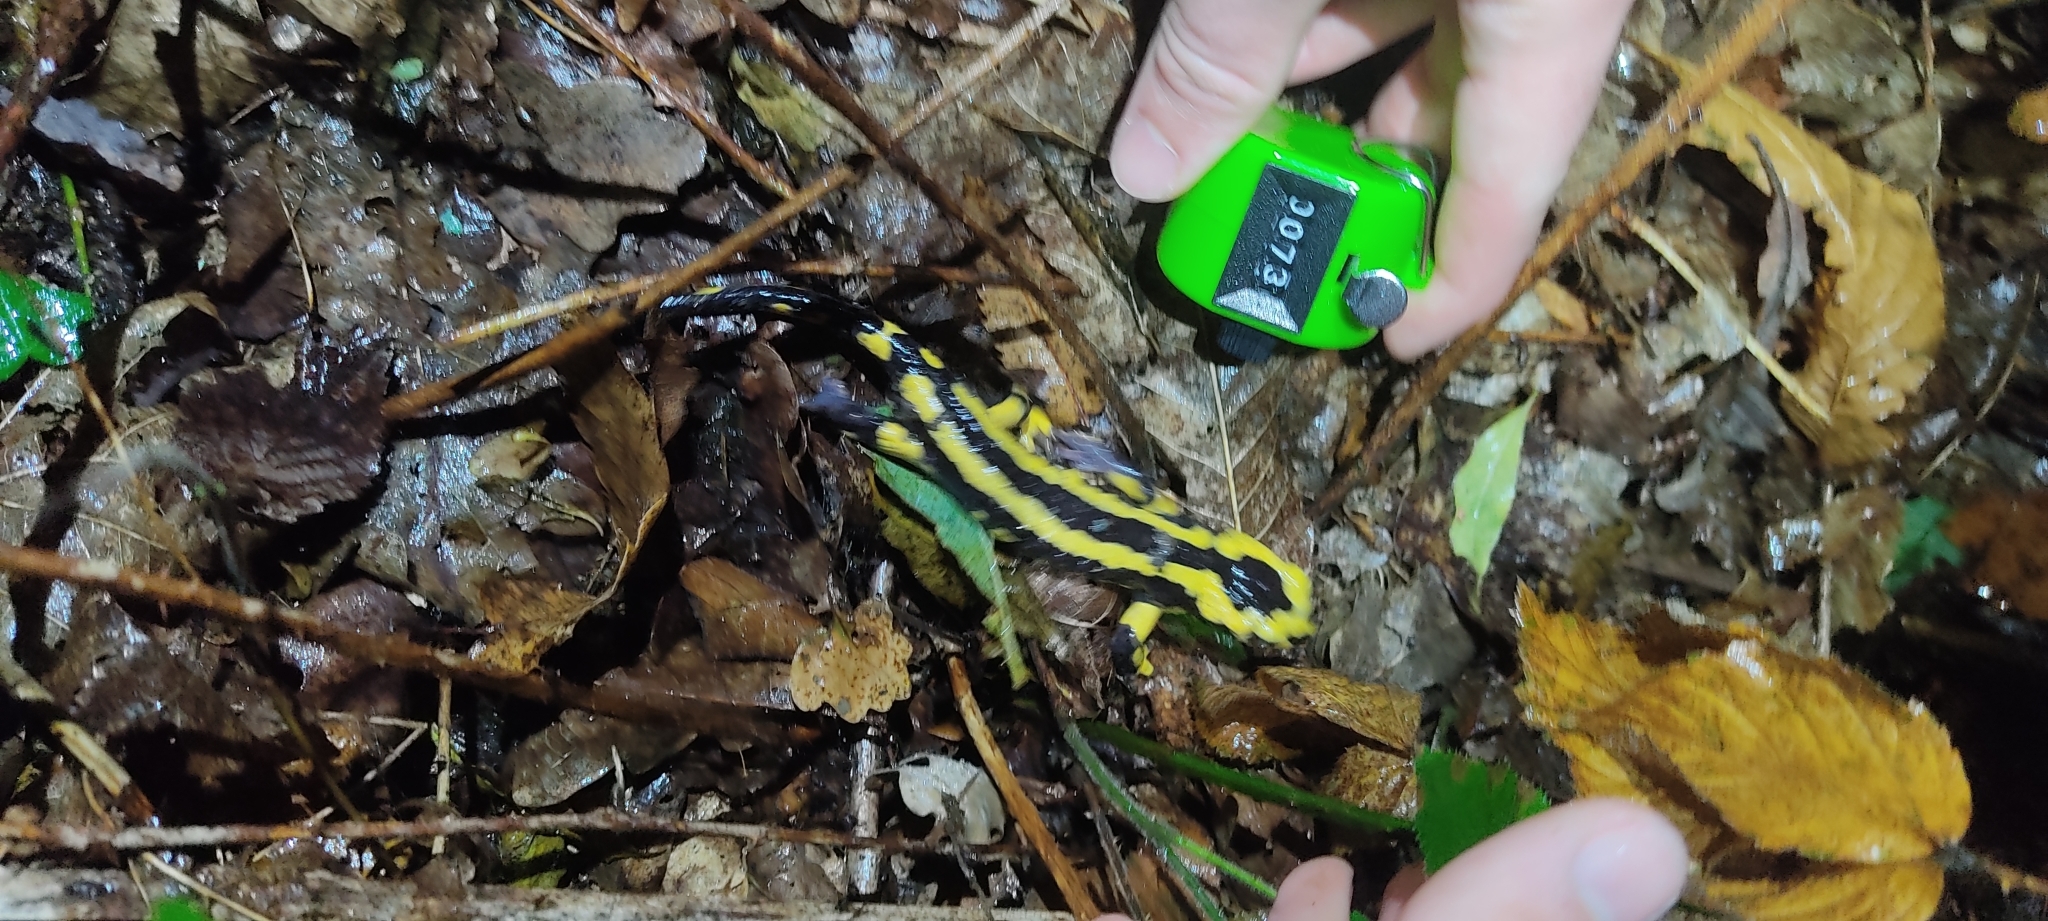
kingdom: Animalia
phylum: Chordata
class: Amphibia
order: Caudata
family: Salamandridae
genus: Salamandra
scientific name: Salamandra salamandra
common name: Fire salamander
